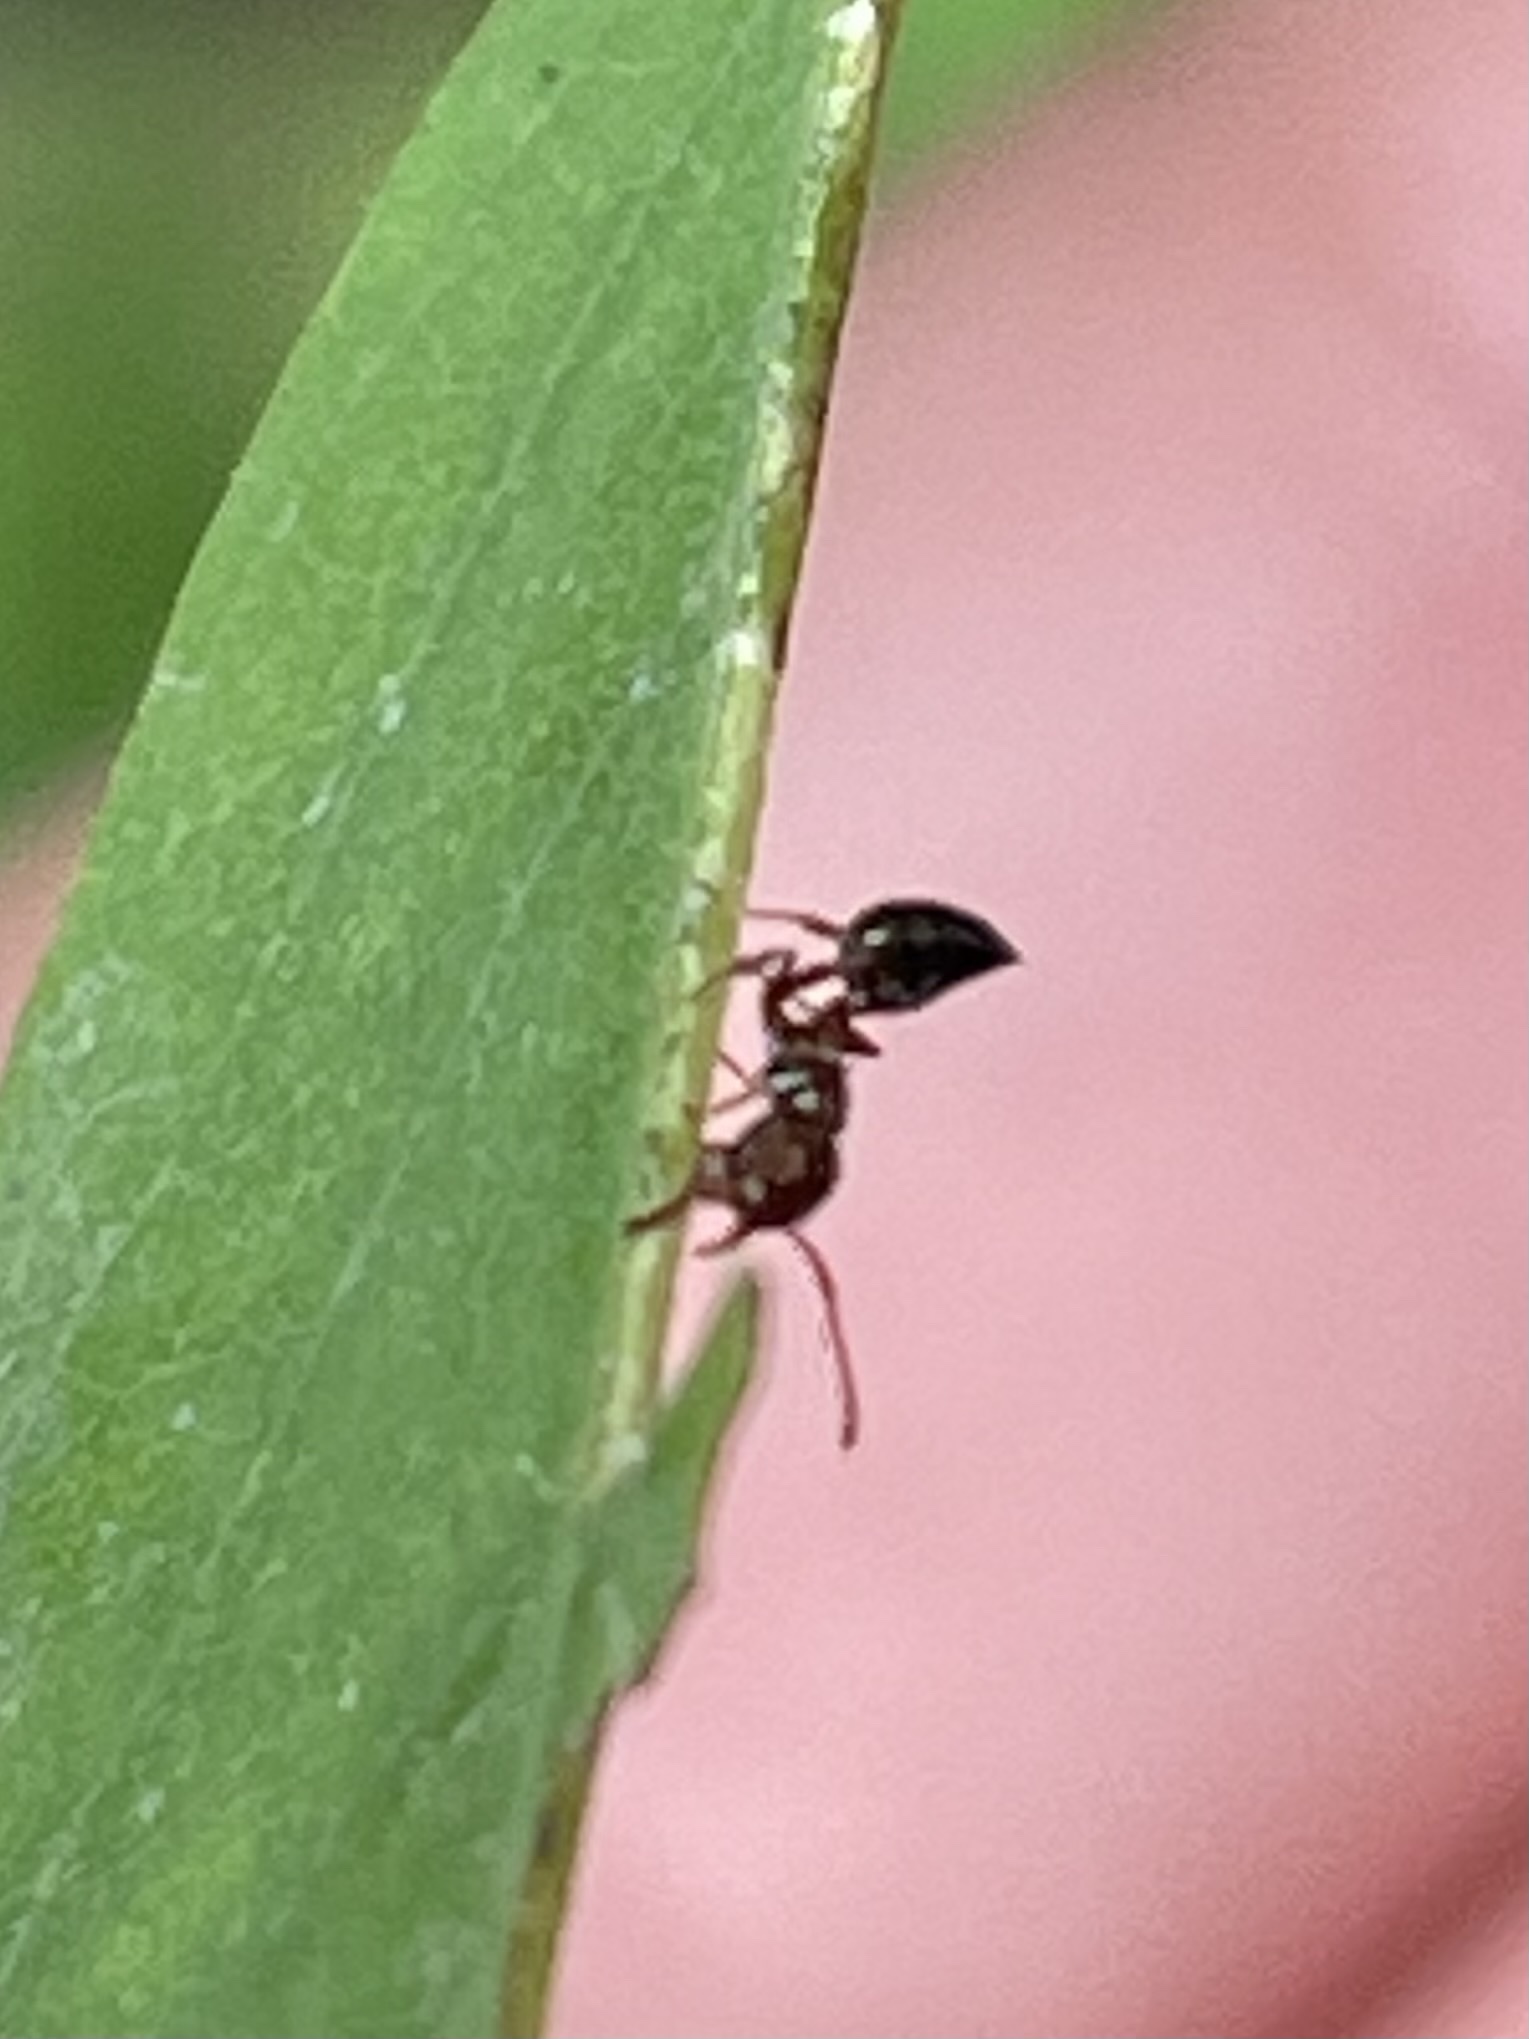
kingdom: Animalia
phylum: Arthropoda
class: Insecta
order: Hymenoptera
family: Formicidae
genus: Crematogaster
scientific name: Crematogaster pilosa
